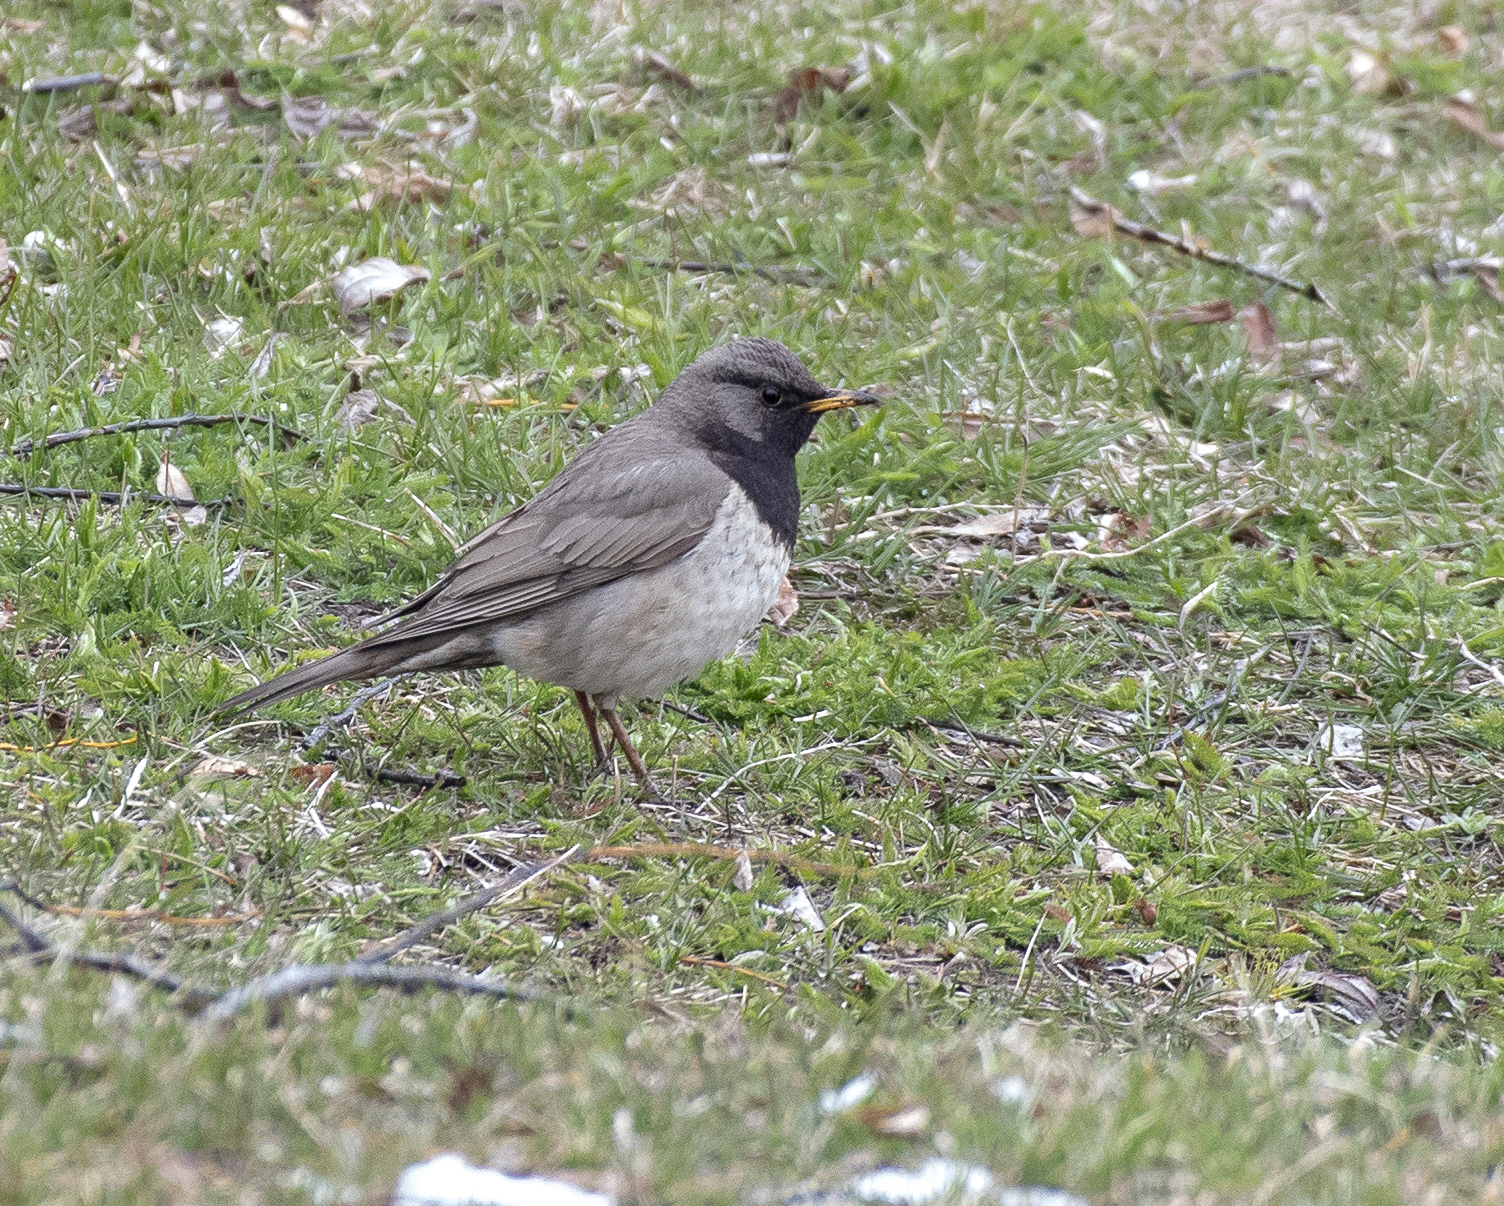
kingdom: Animalia
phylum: Chordata
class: Aves
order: Passeriformes
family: Turdidae
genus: Turdus
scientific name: Turdus atrogularis
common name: Black-throated thrush
